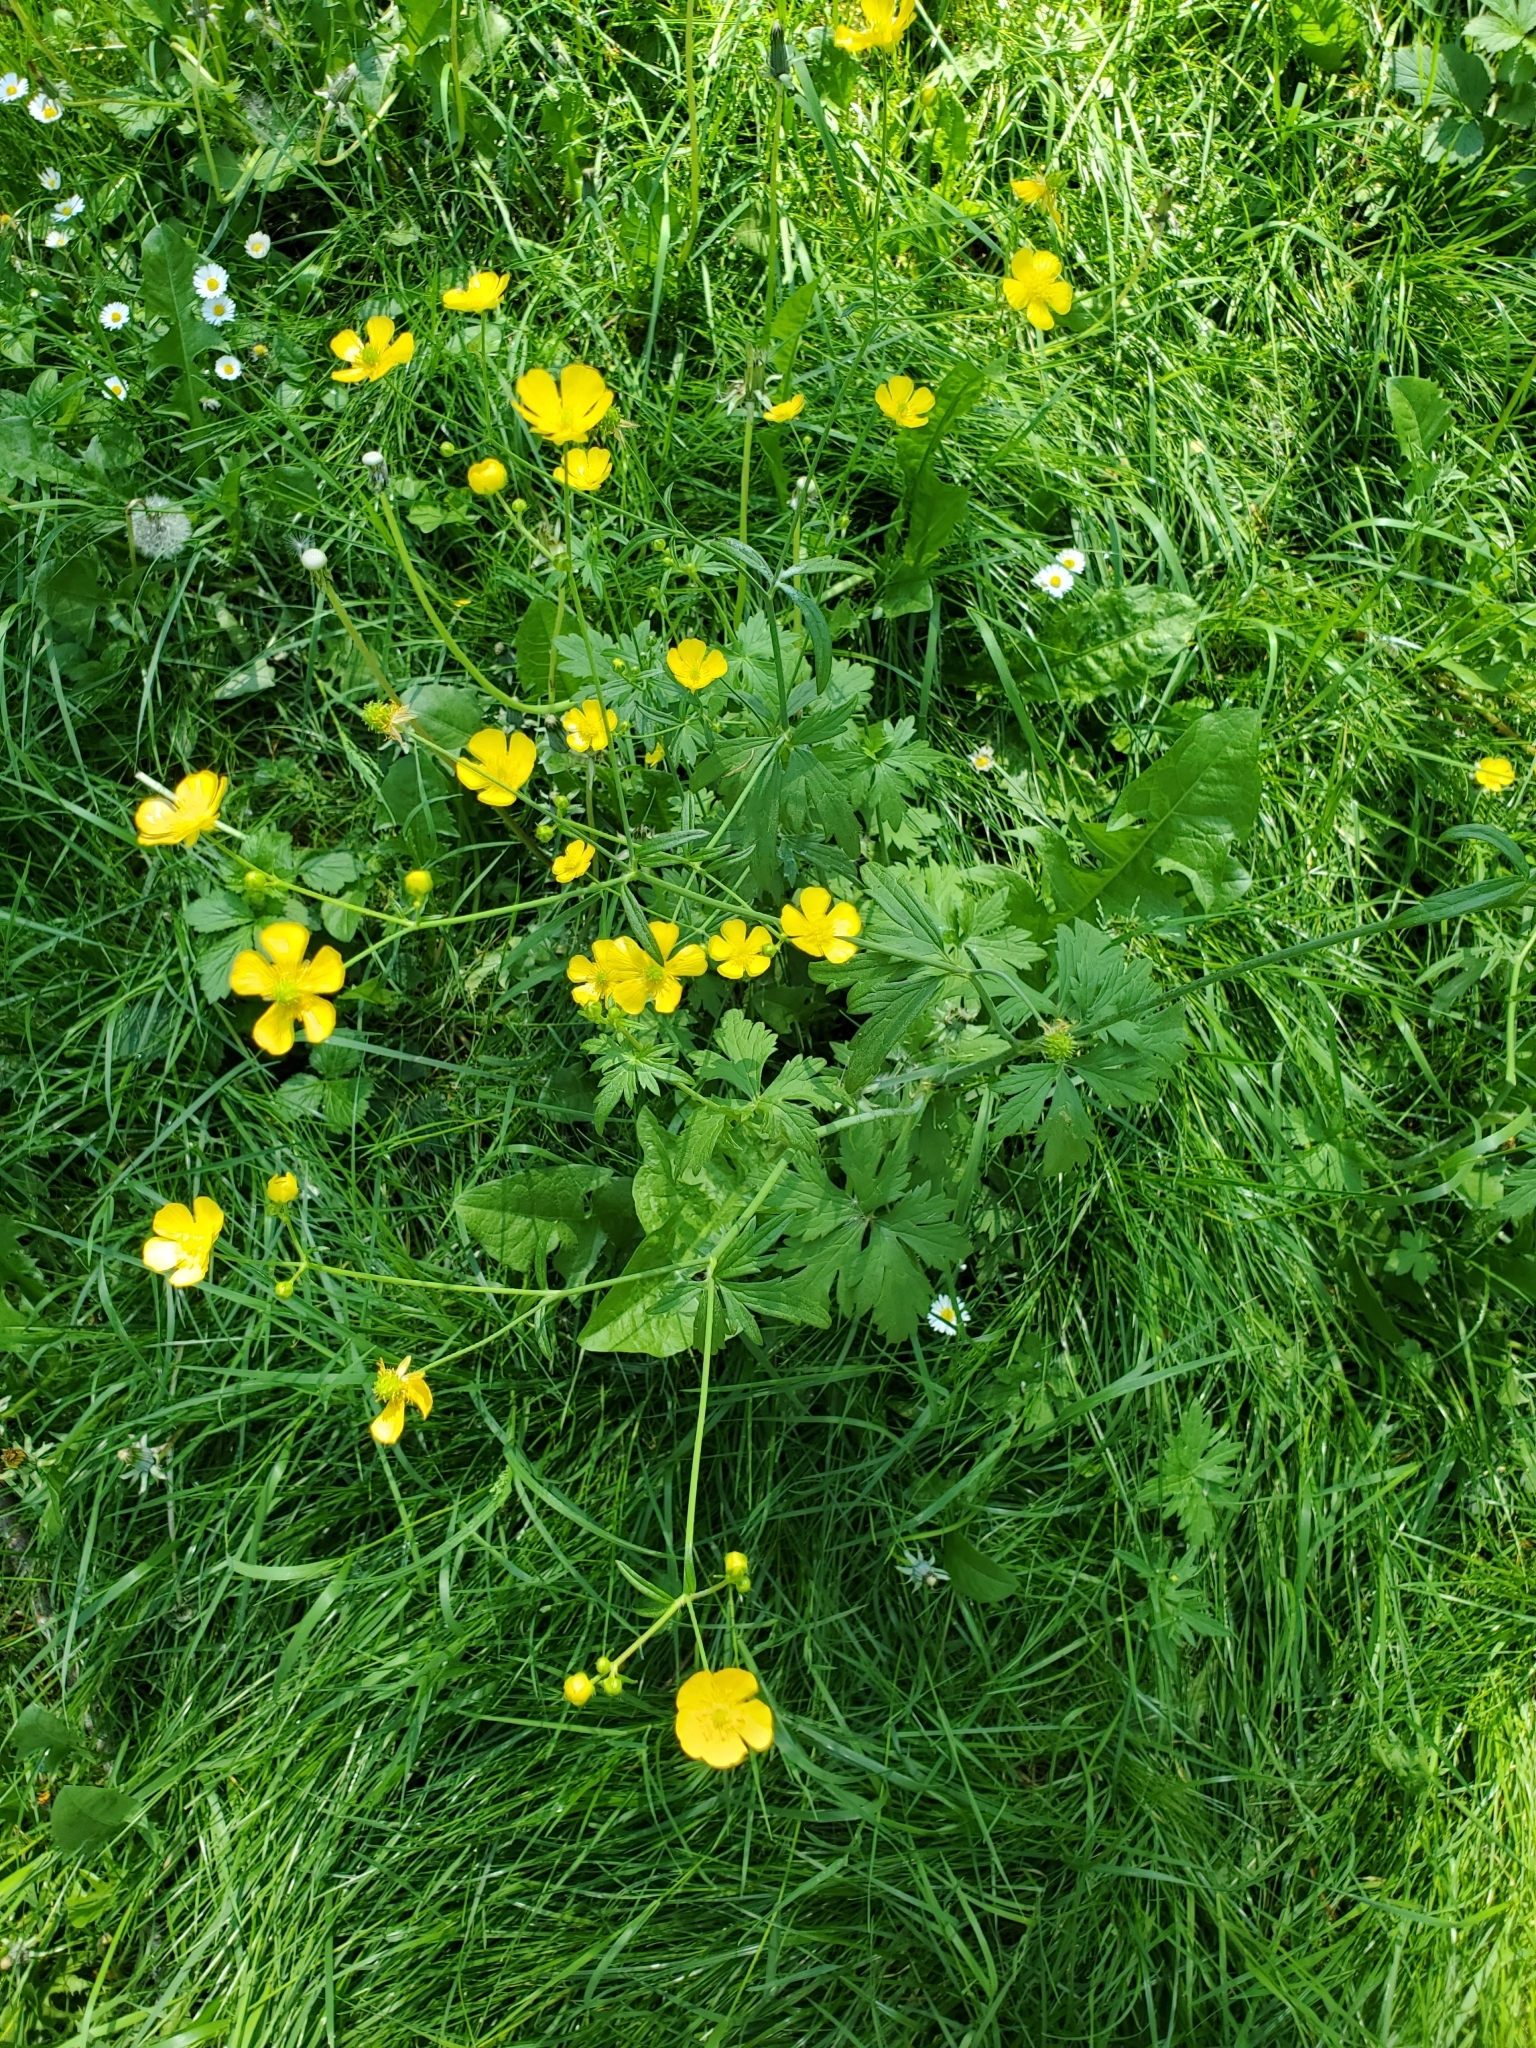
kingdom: Plantae
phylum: Tracheophyta
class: Magnoliopsida
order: Ranunculales
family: Ranunculaceae
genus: Ranunculus
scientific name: Ranunculus acris
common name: Meadow buttercup
